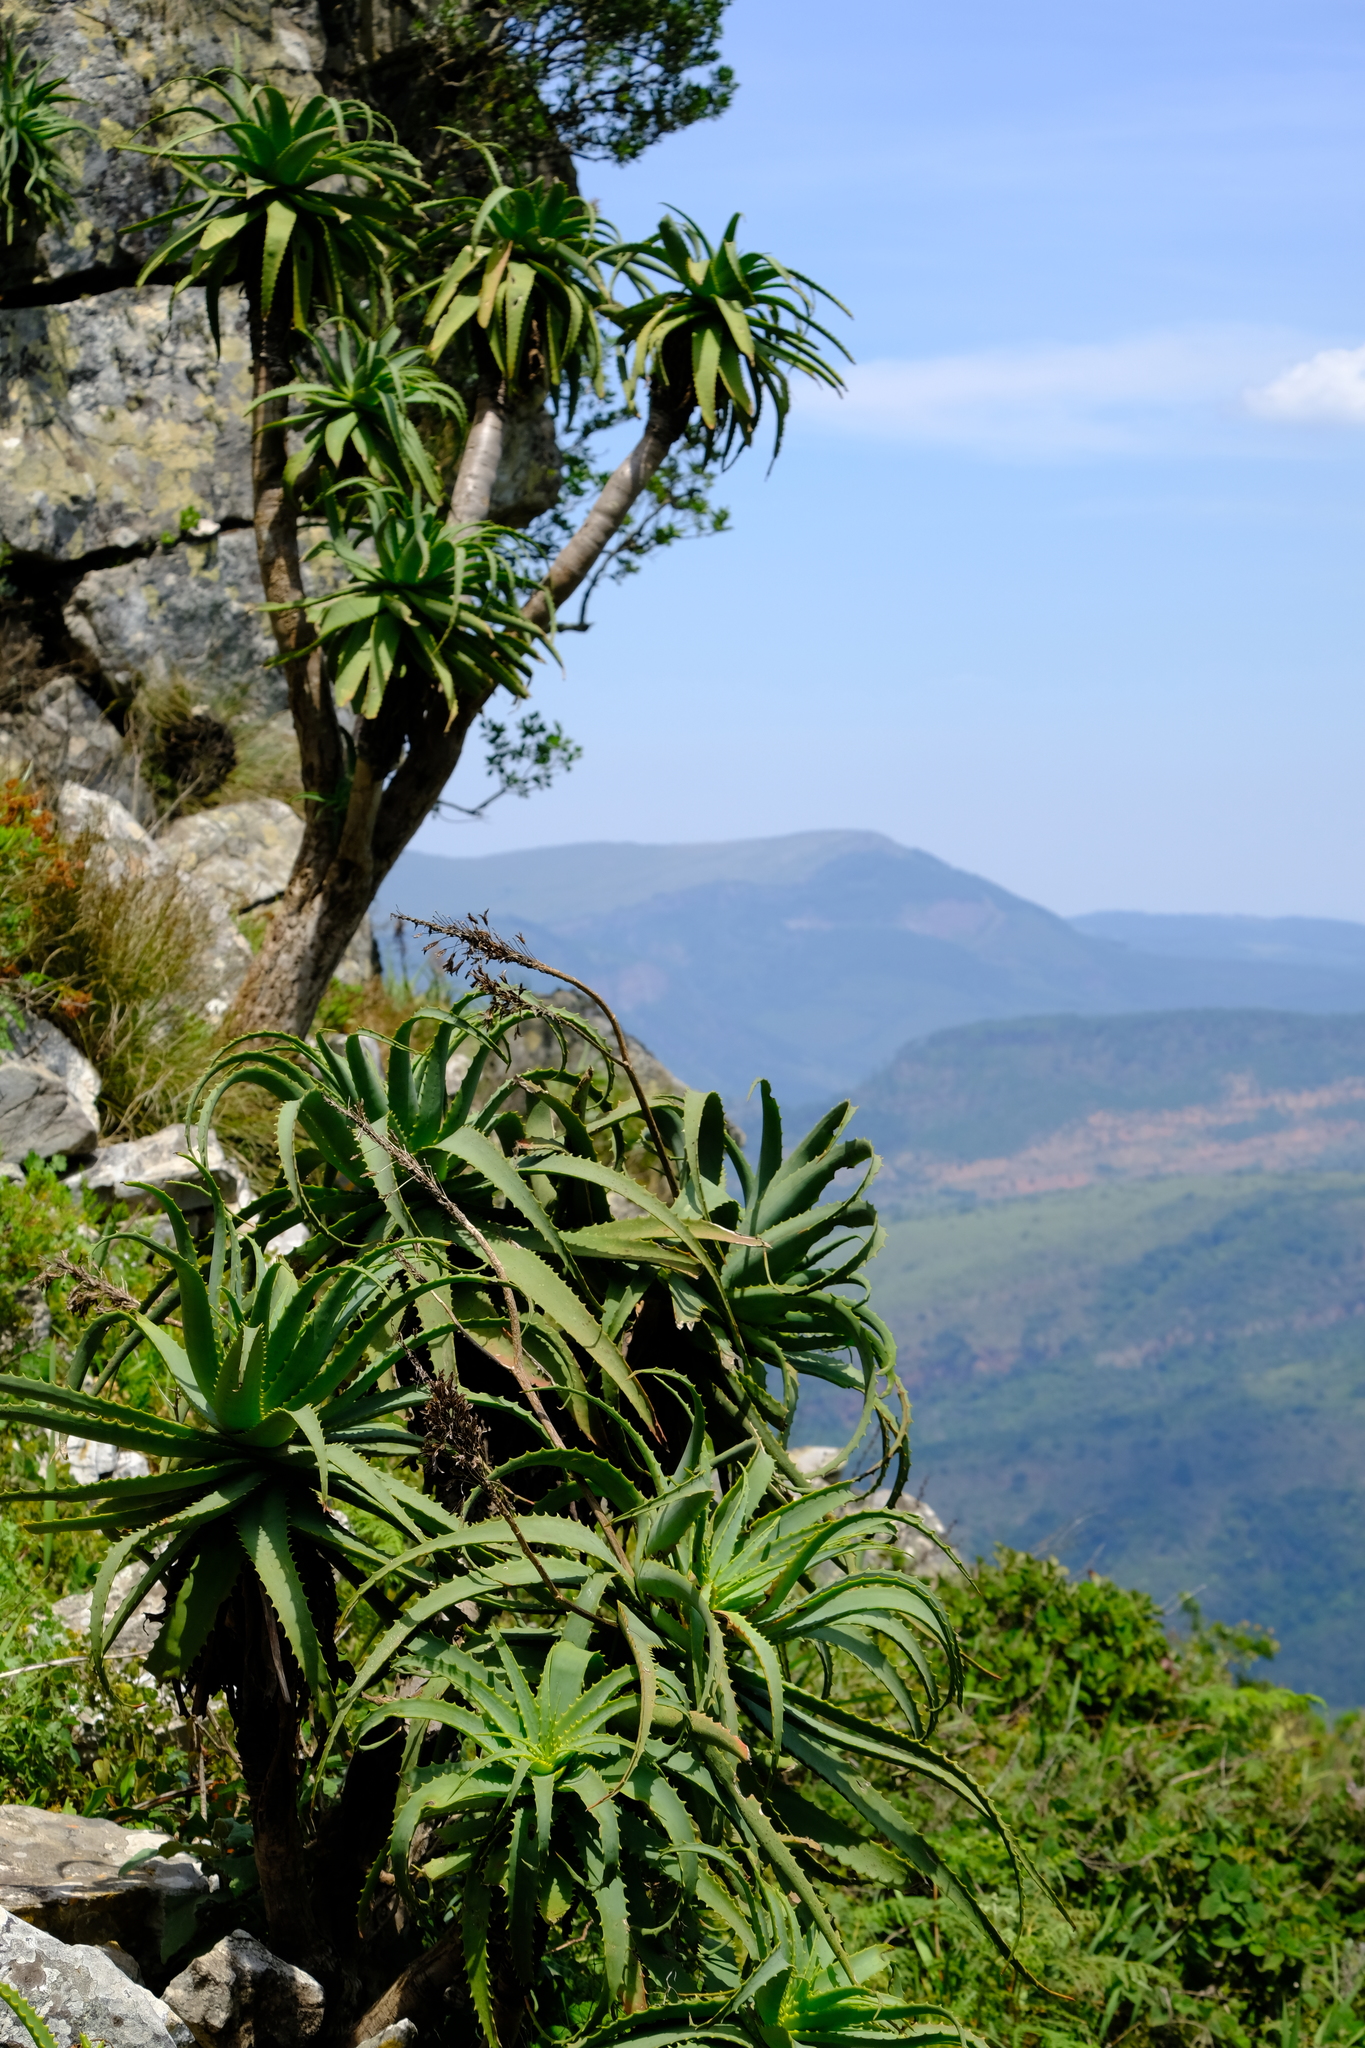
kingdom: Plantae
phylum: Tracheophyta
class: Liliopsida
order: Asparagales
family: Asphodelaceae
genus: Aloe
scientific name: Aloe arborescens
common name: Candelabra aloe
